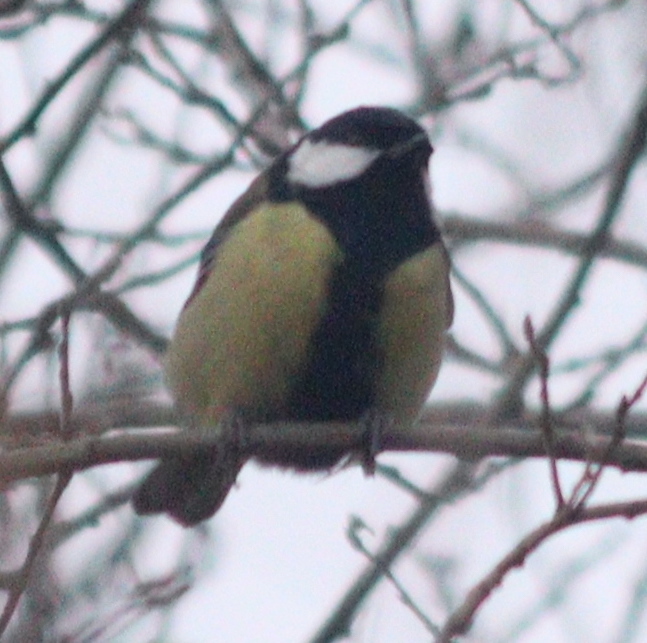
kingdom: Animalia
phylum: Chordata
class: Aves
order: Passeriformes
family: Paridae
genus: Parus
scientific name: Parus major
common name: Great tit
